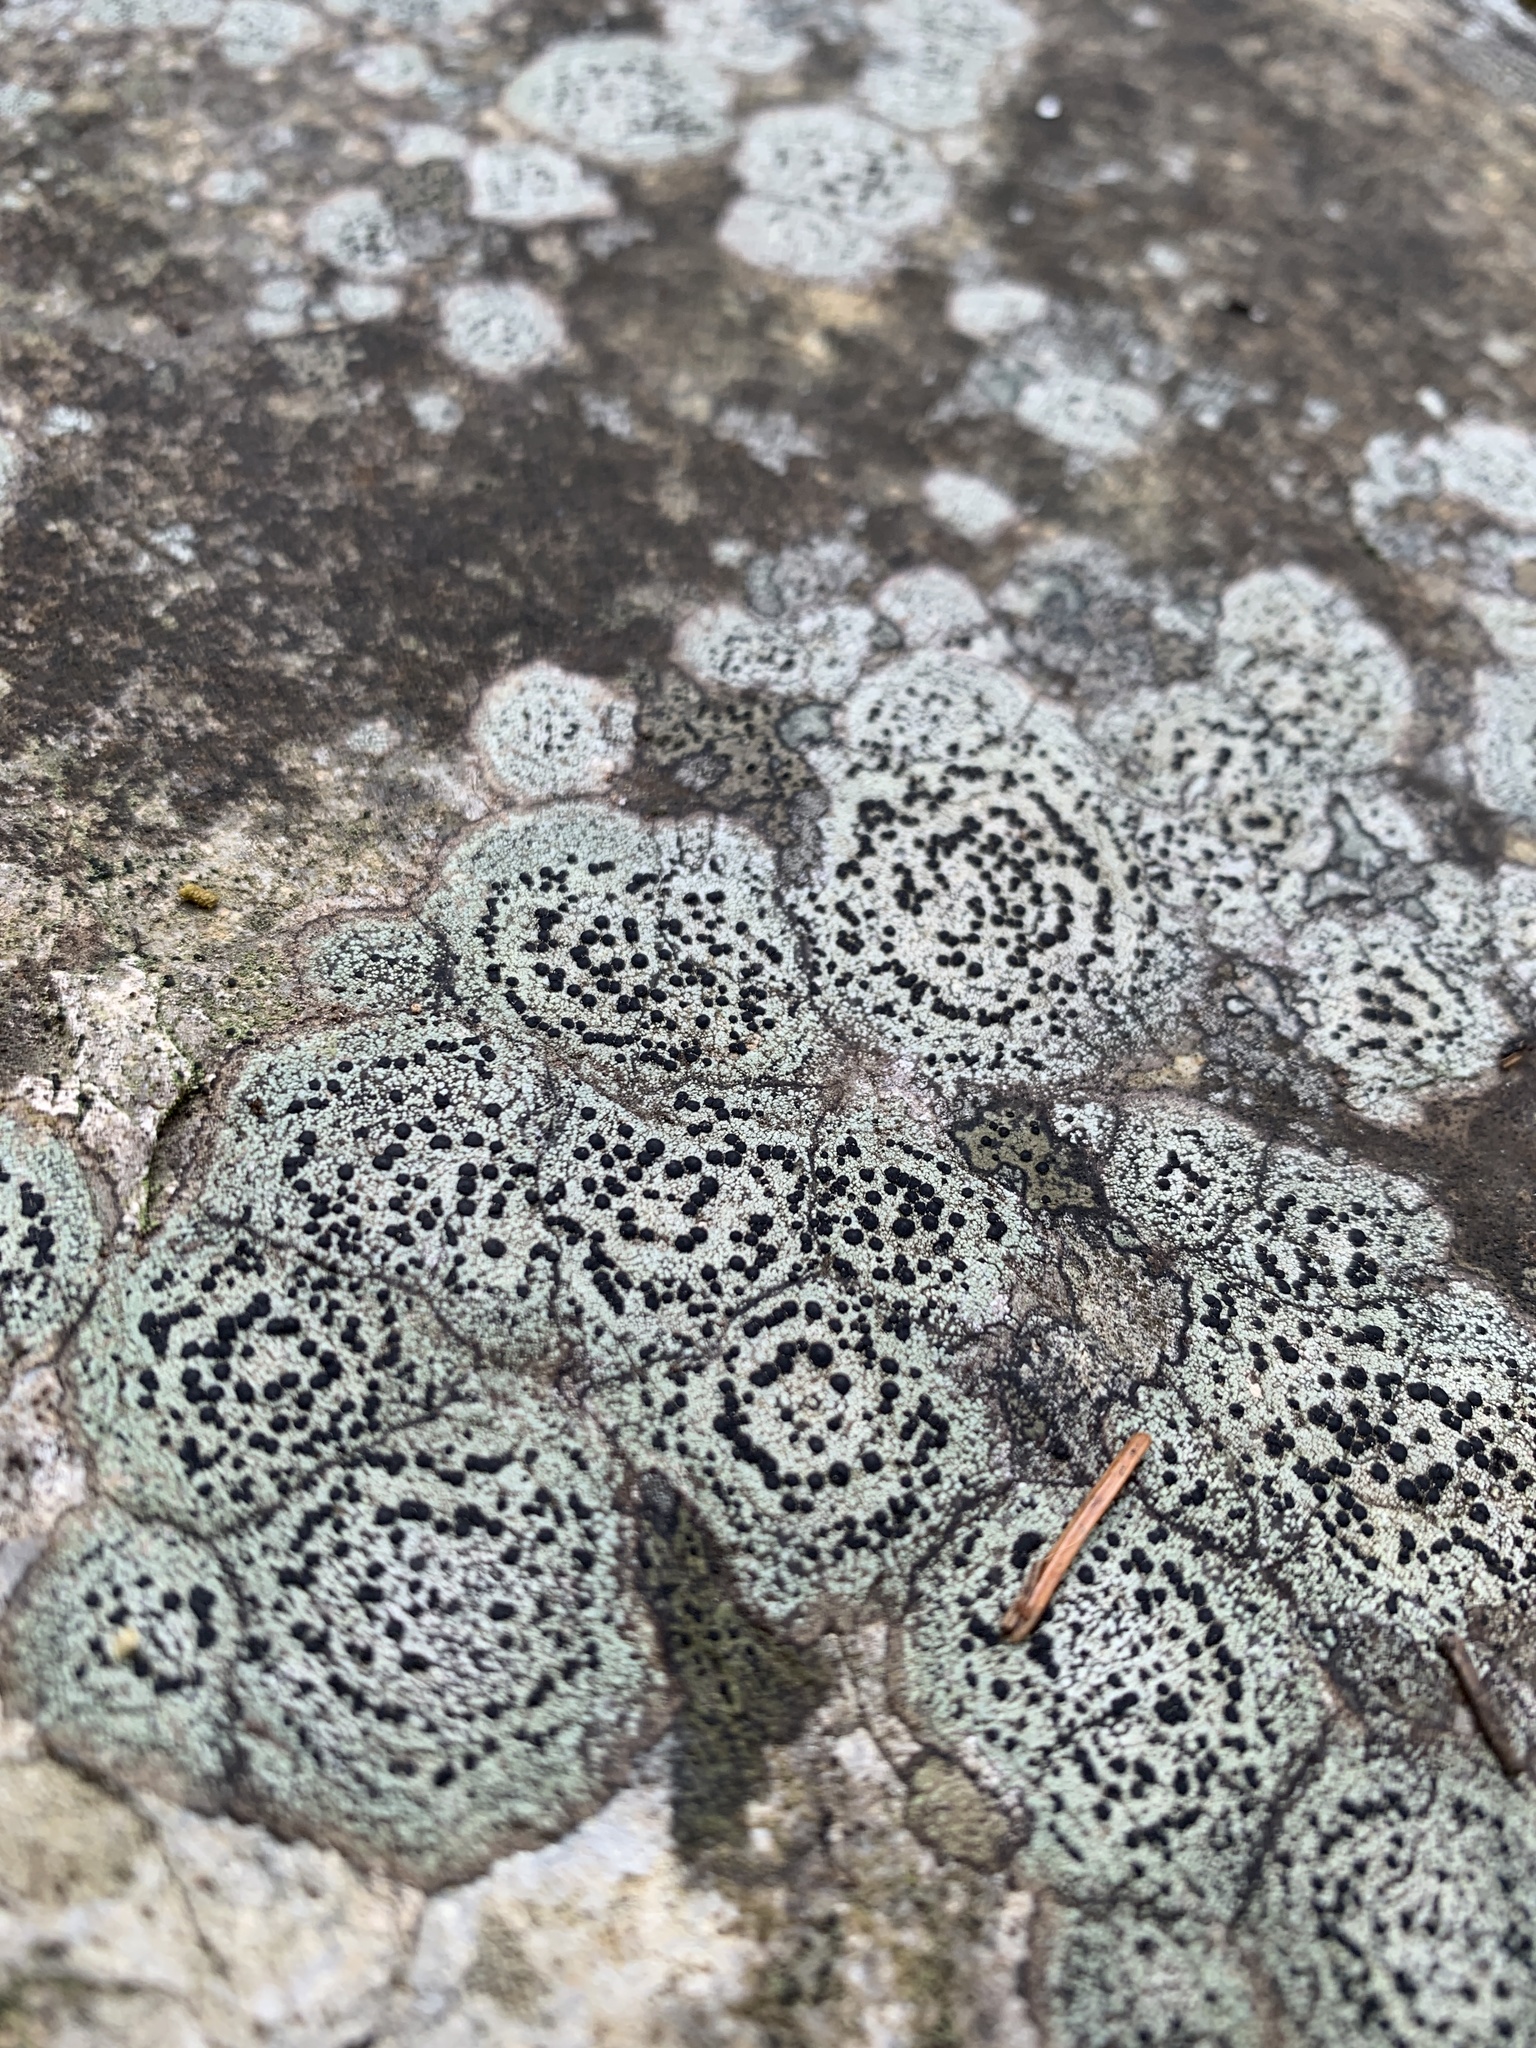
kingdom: Fungi
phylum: Ascomycota
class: Lecanoromycetes
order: Lecideales
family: Lecideaceae
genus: Porpidia
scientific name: Porpidia crustulata
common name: Concentric boulder lichen
